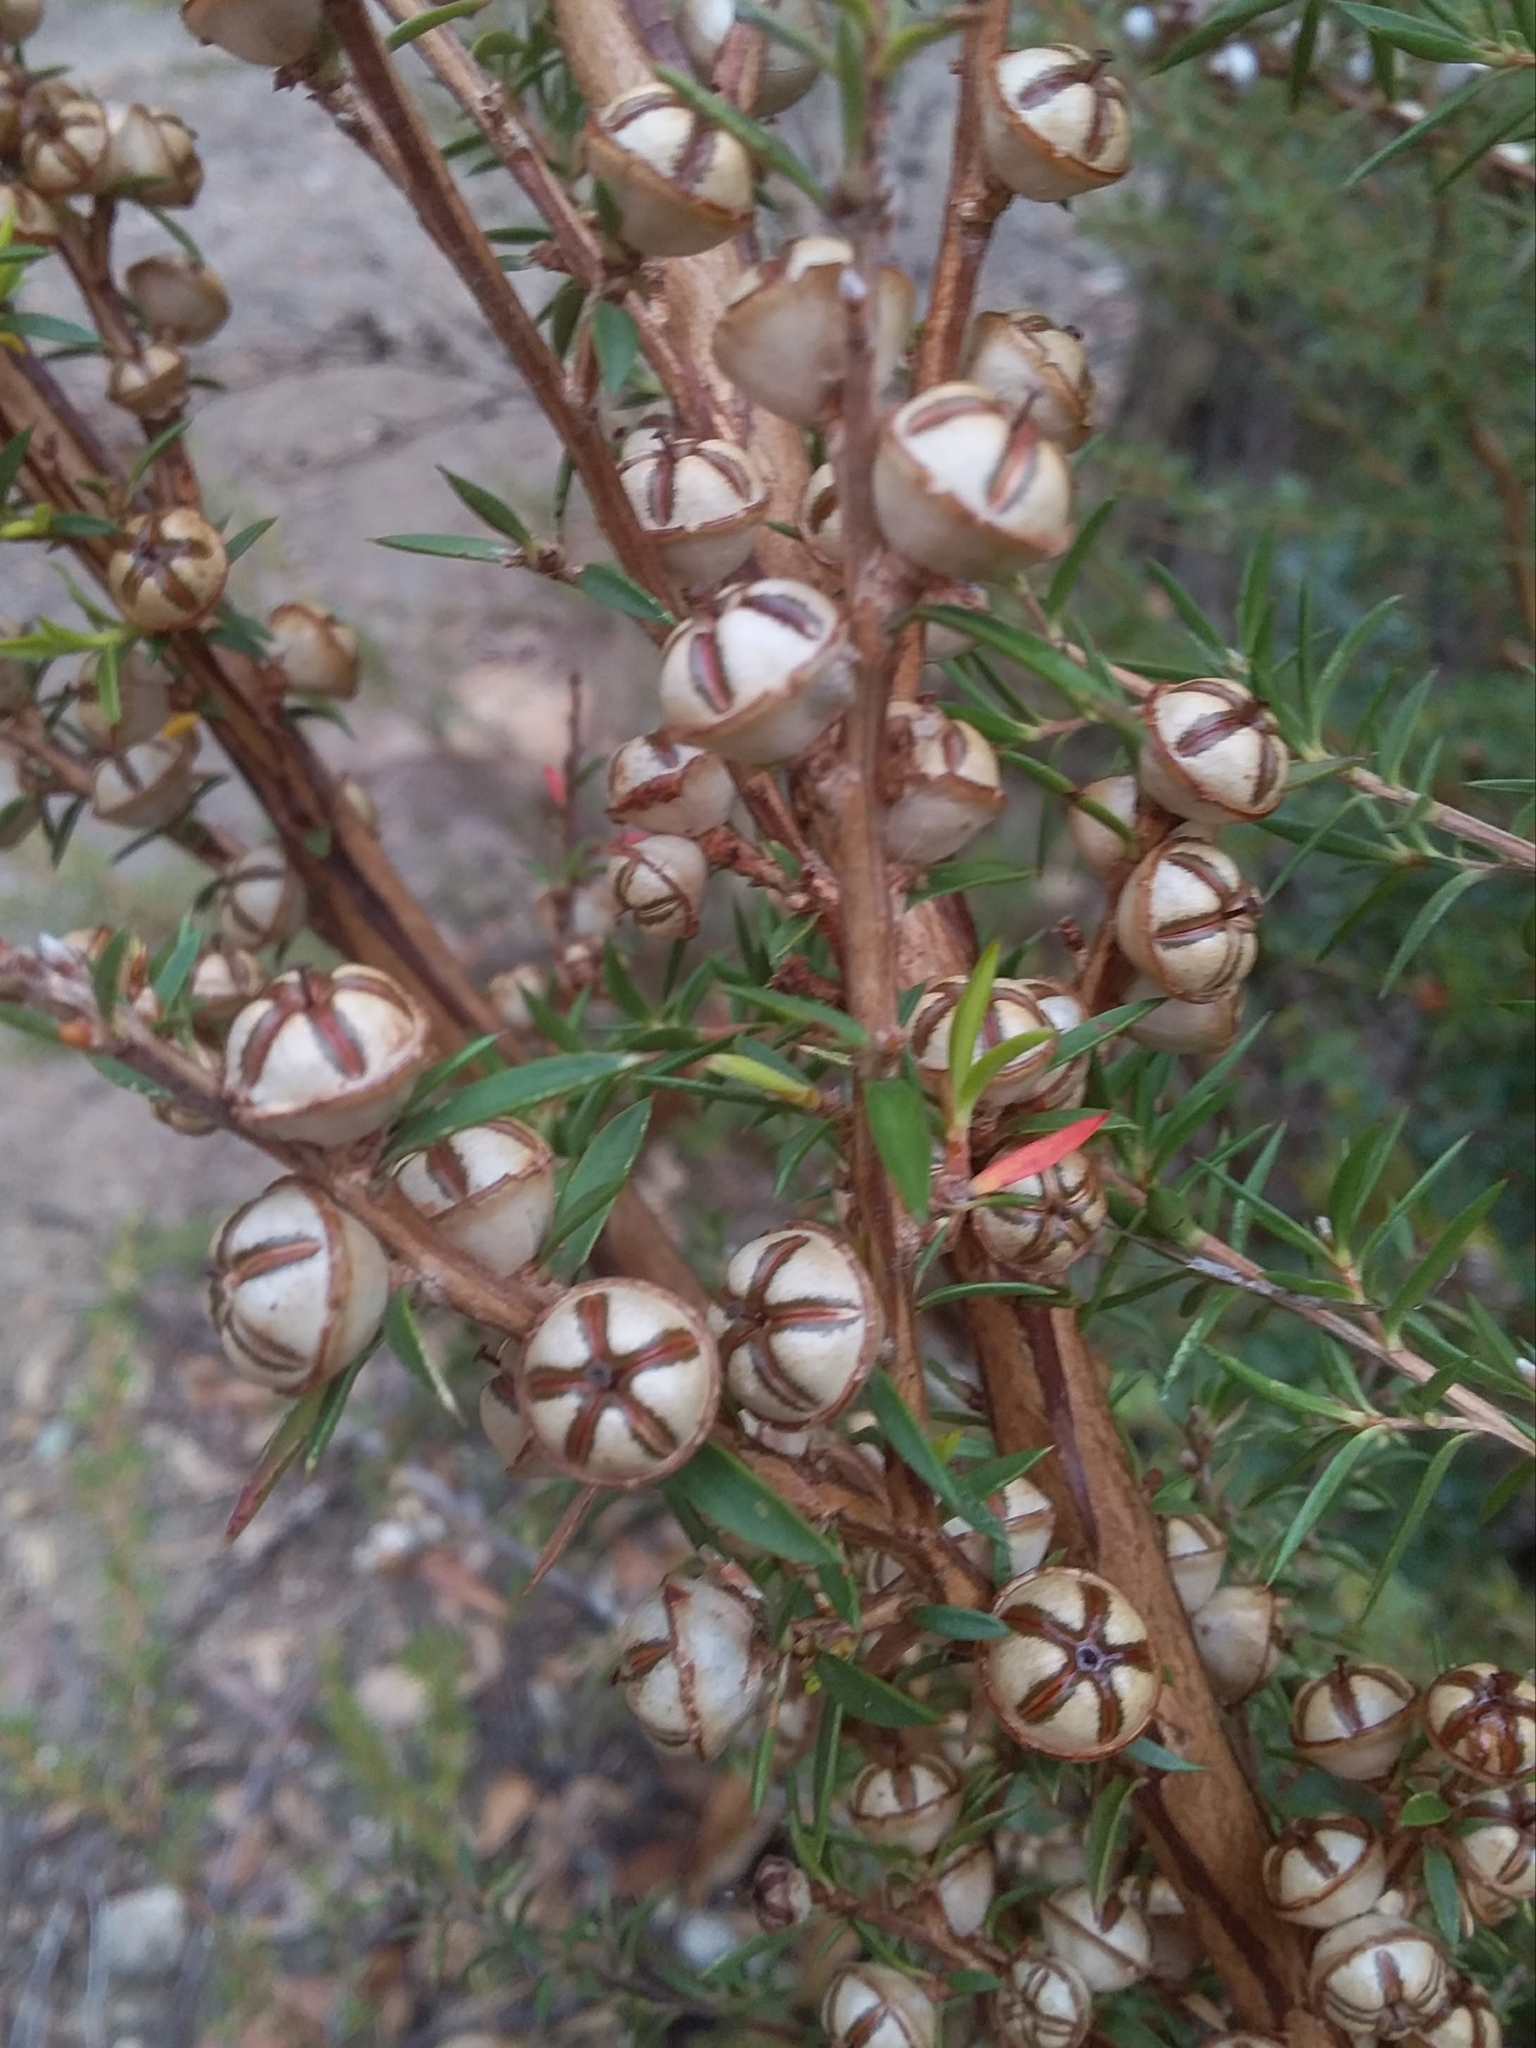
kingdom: Plantae
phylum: Tracheophyta
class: Magnoliopsida
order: Myrtales
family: Myrtaceae
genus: Leptospermum
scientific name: Leptospermum continentale
